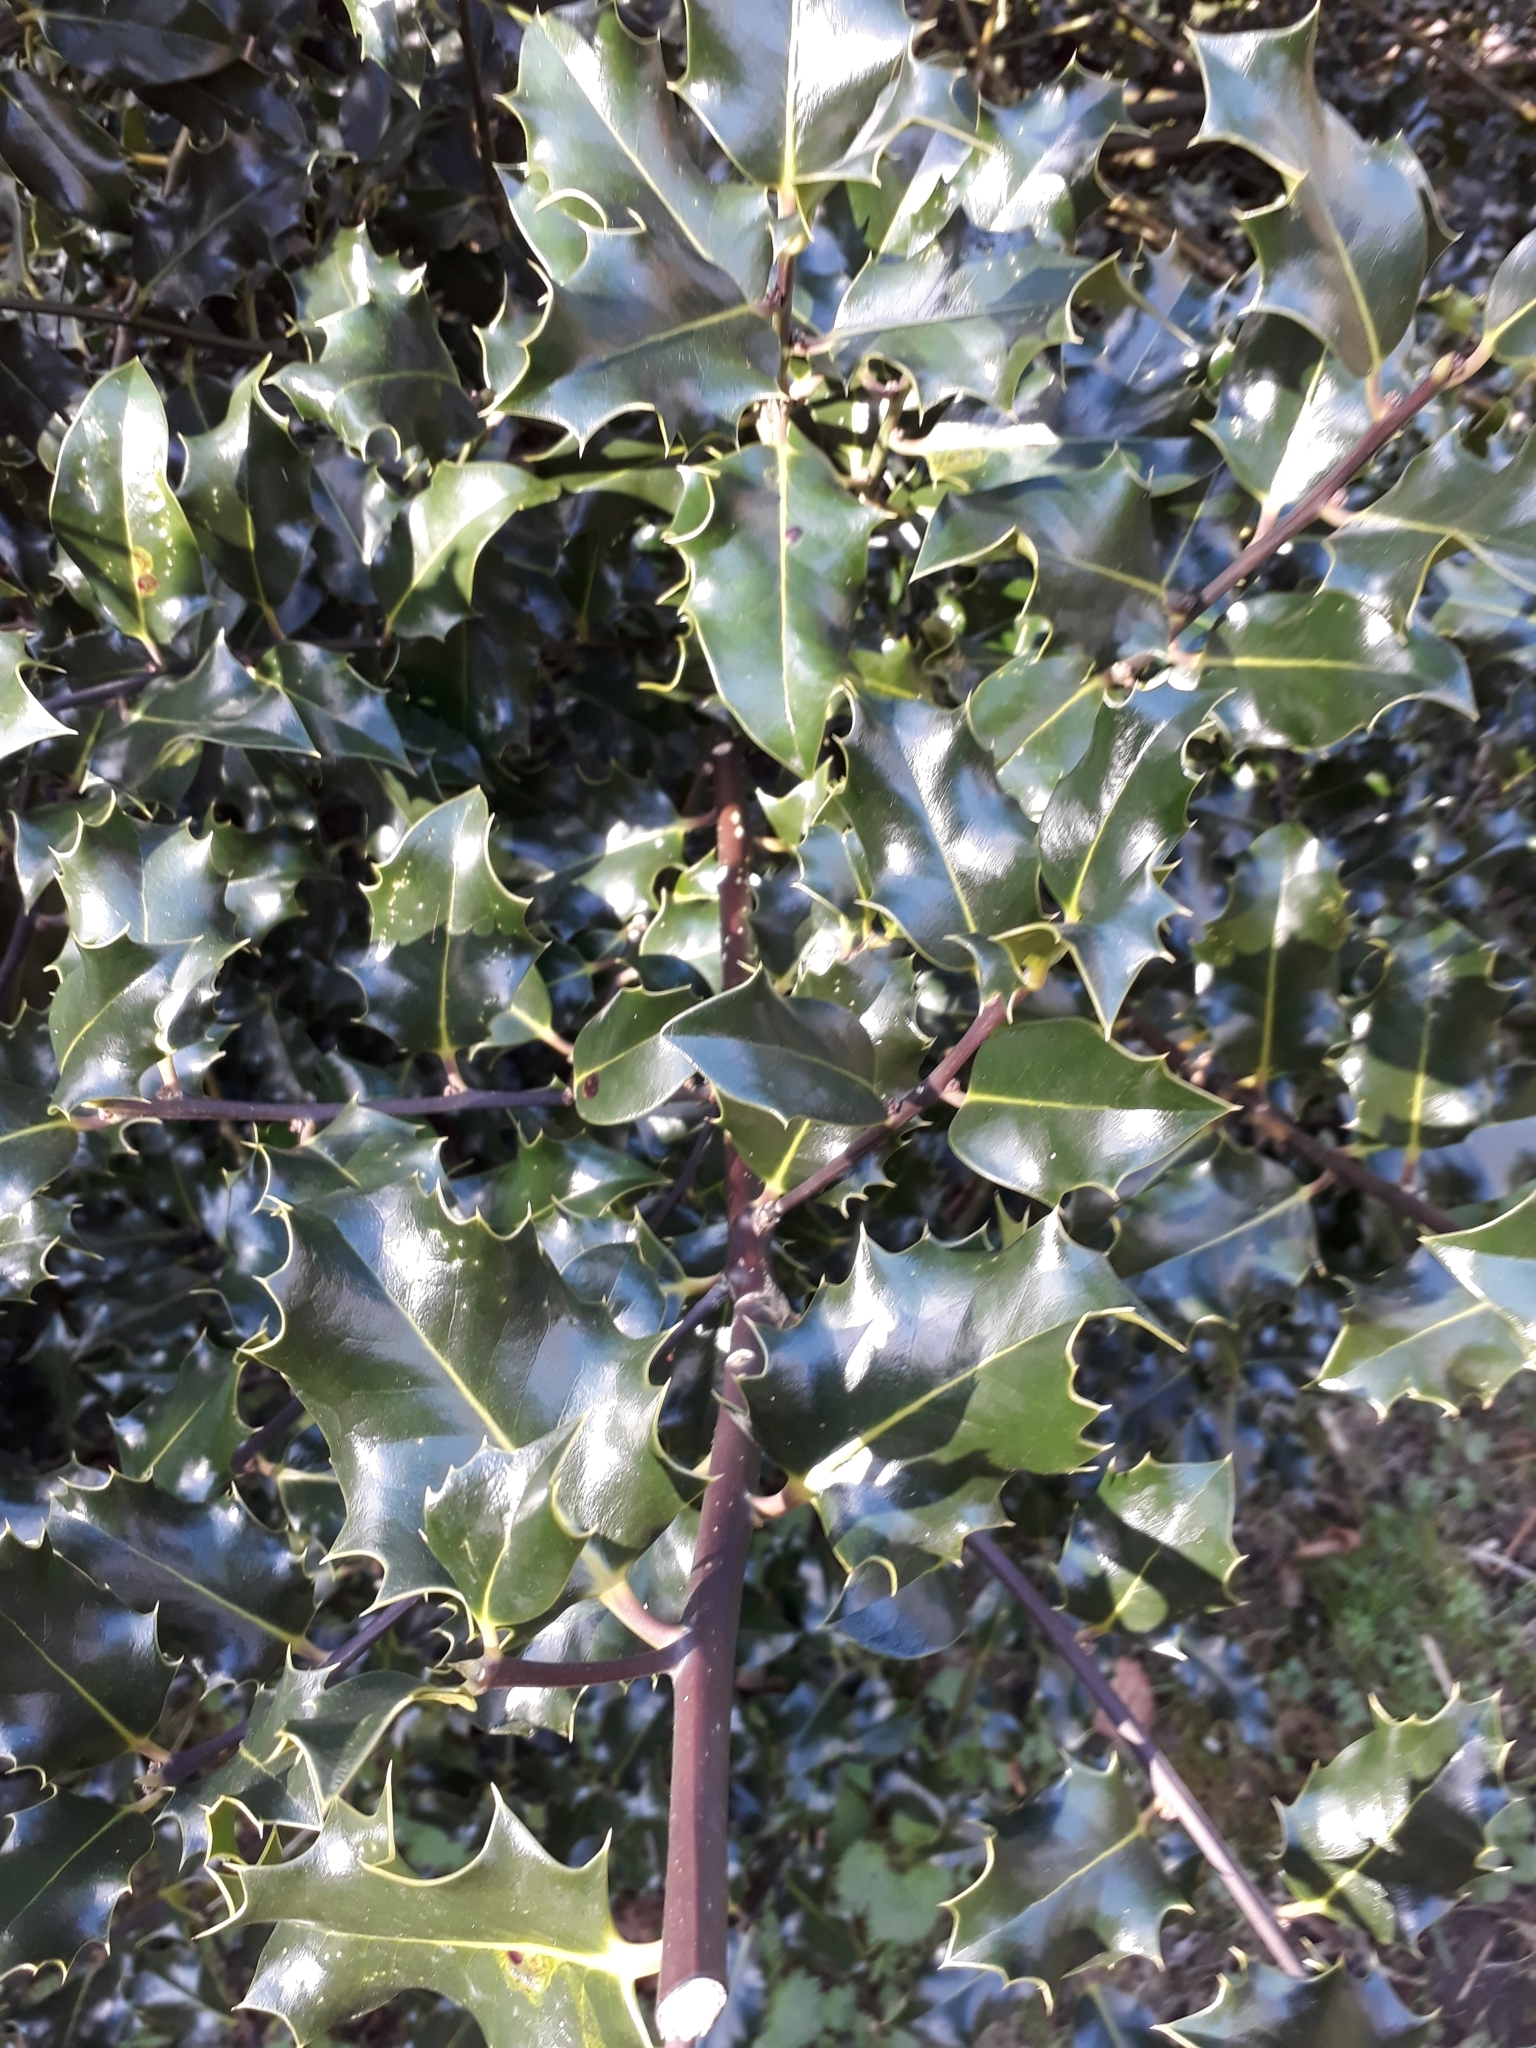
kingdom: Plantae
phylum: Tracheophyta
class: Magnoliopsida
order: Aquifoliales
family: Aquifoliaceae
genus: Ilex
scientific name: Ilex aquifolium
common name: English holly
